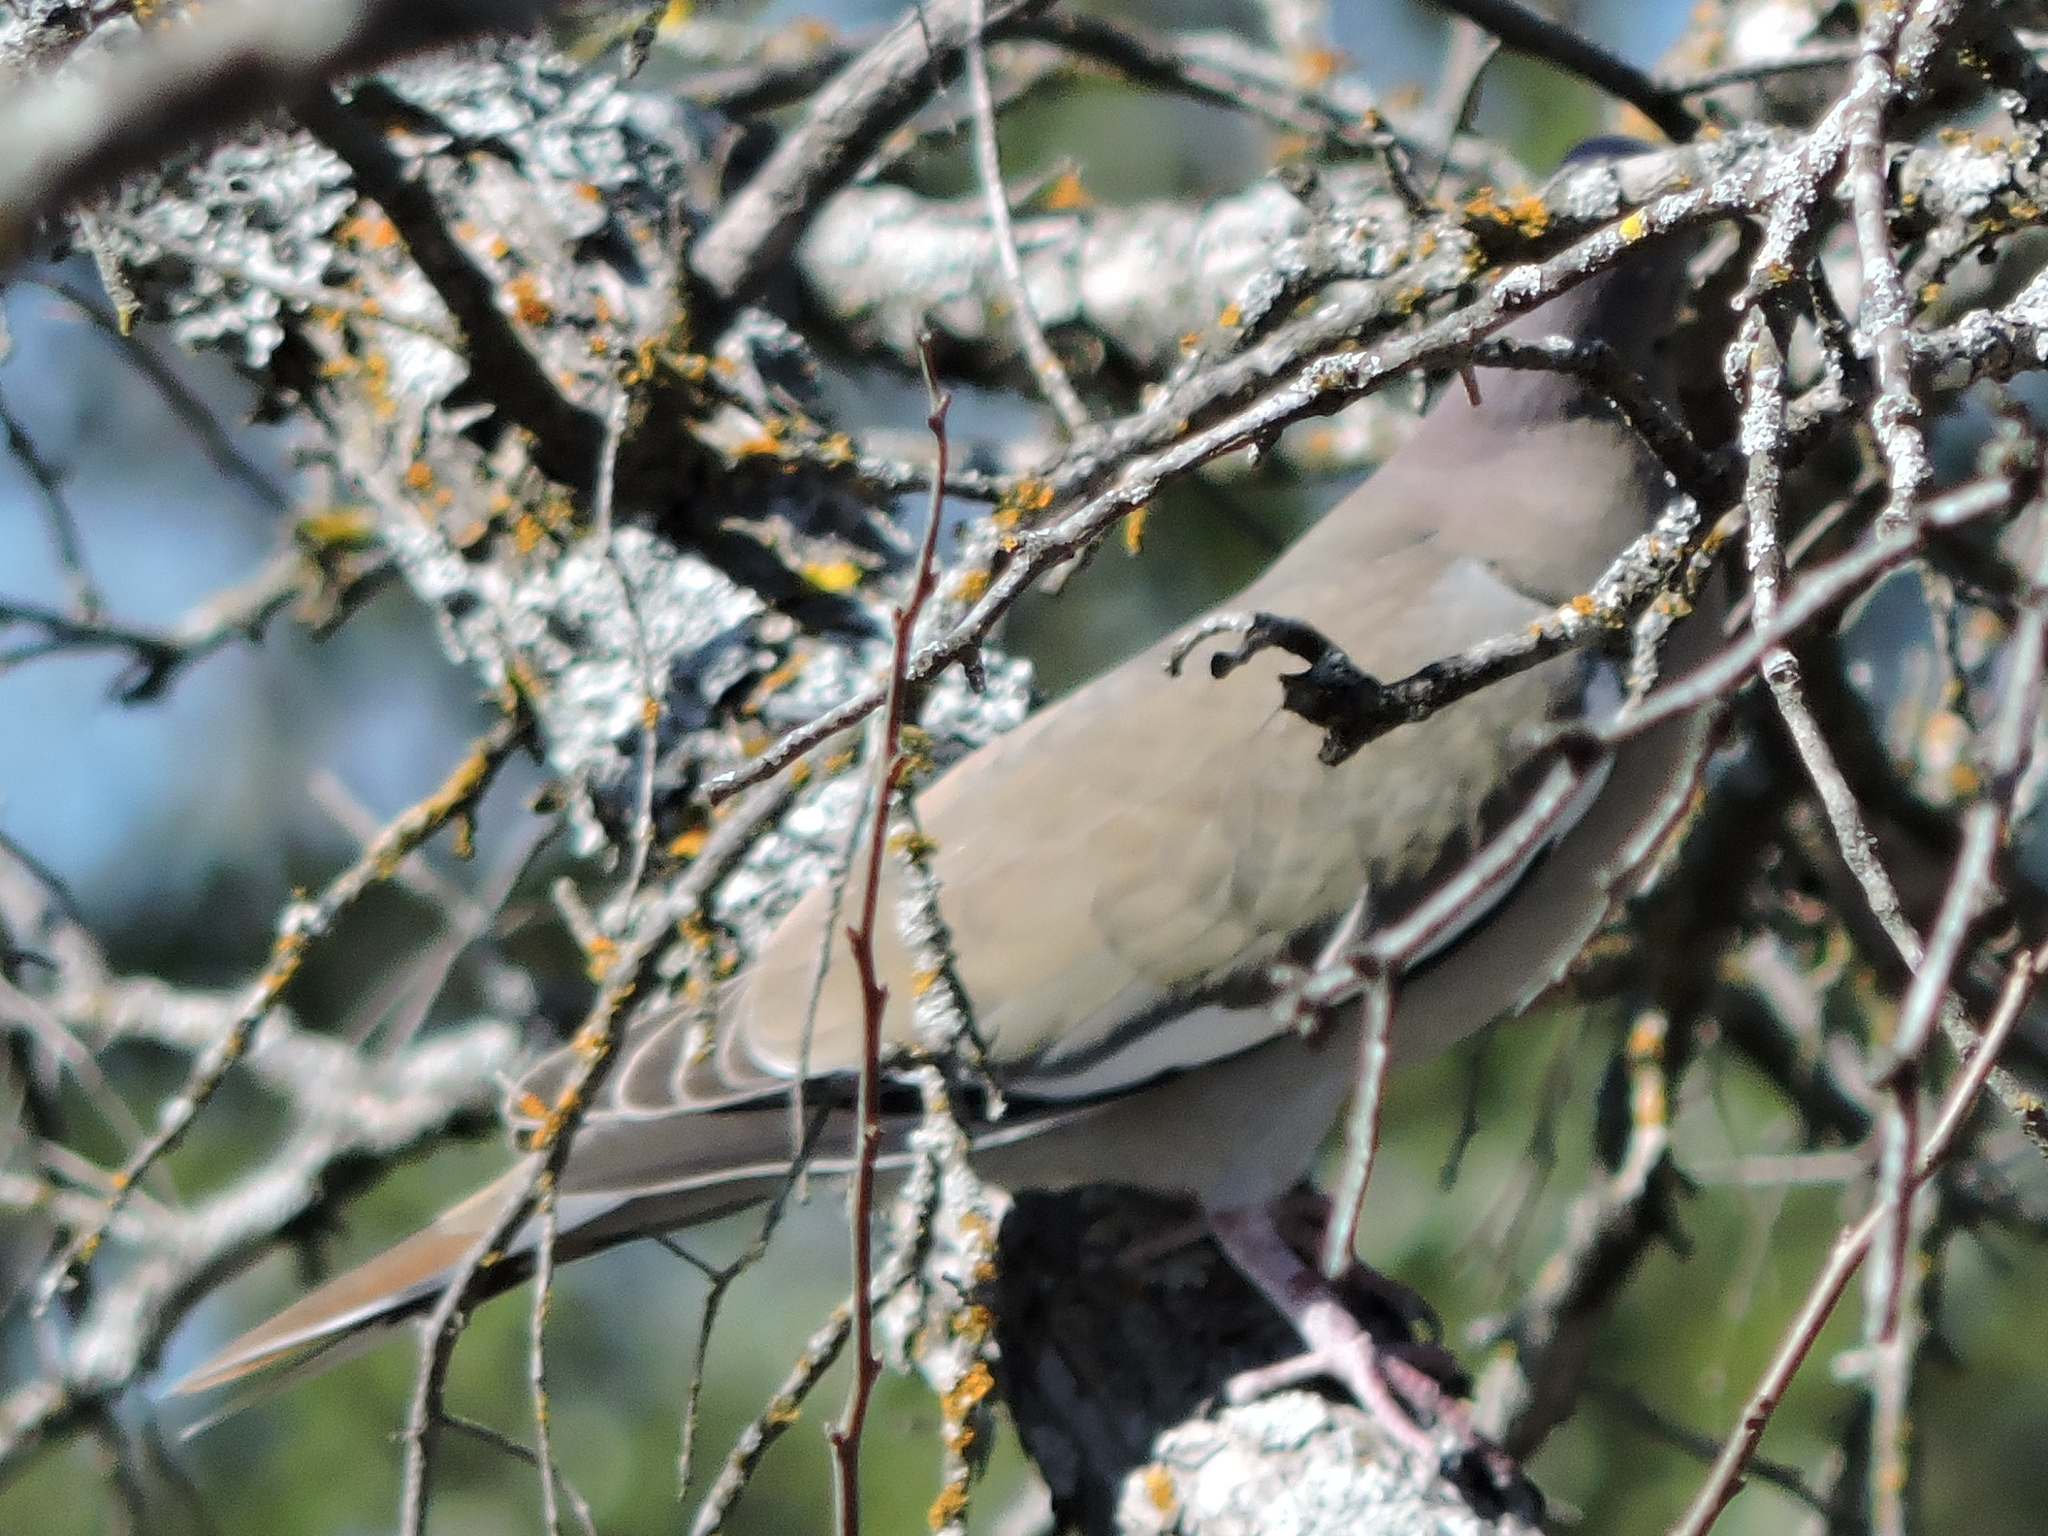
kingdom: Animalia
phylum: Chordata
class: Aves
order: Columbiformes
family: Columbidae
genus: Zenaida
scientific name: Zenaida asiatica
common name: White-winged dove
